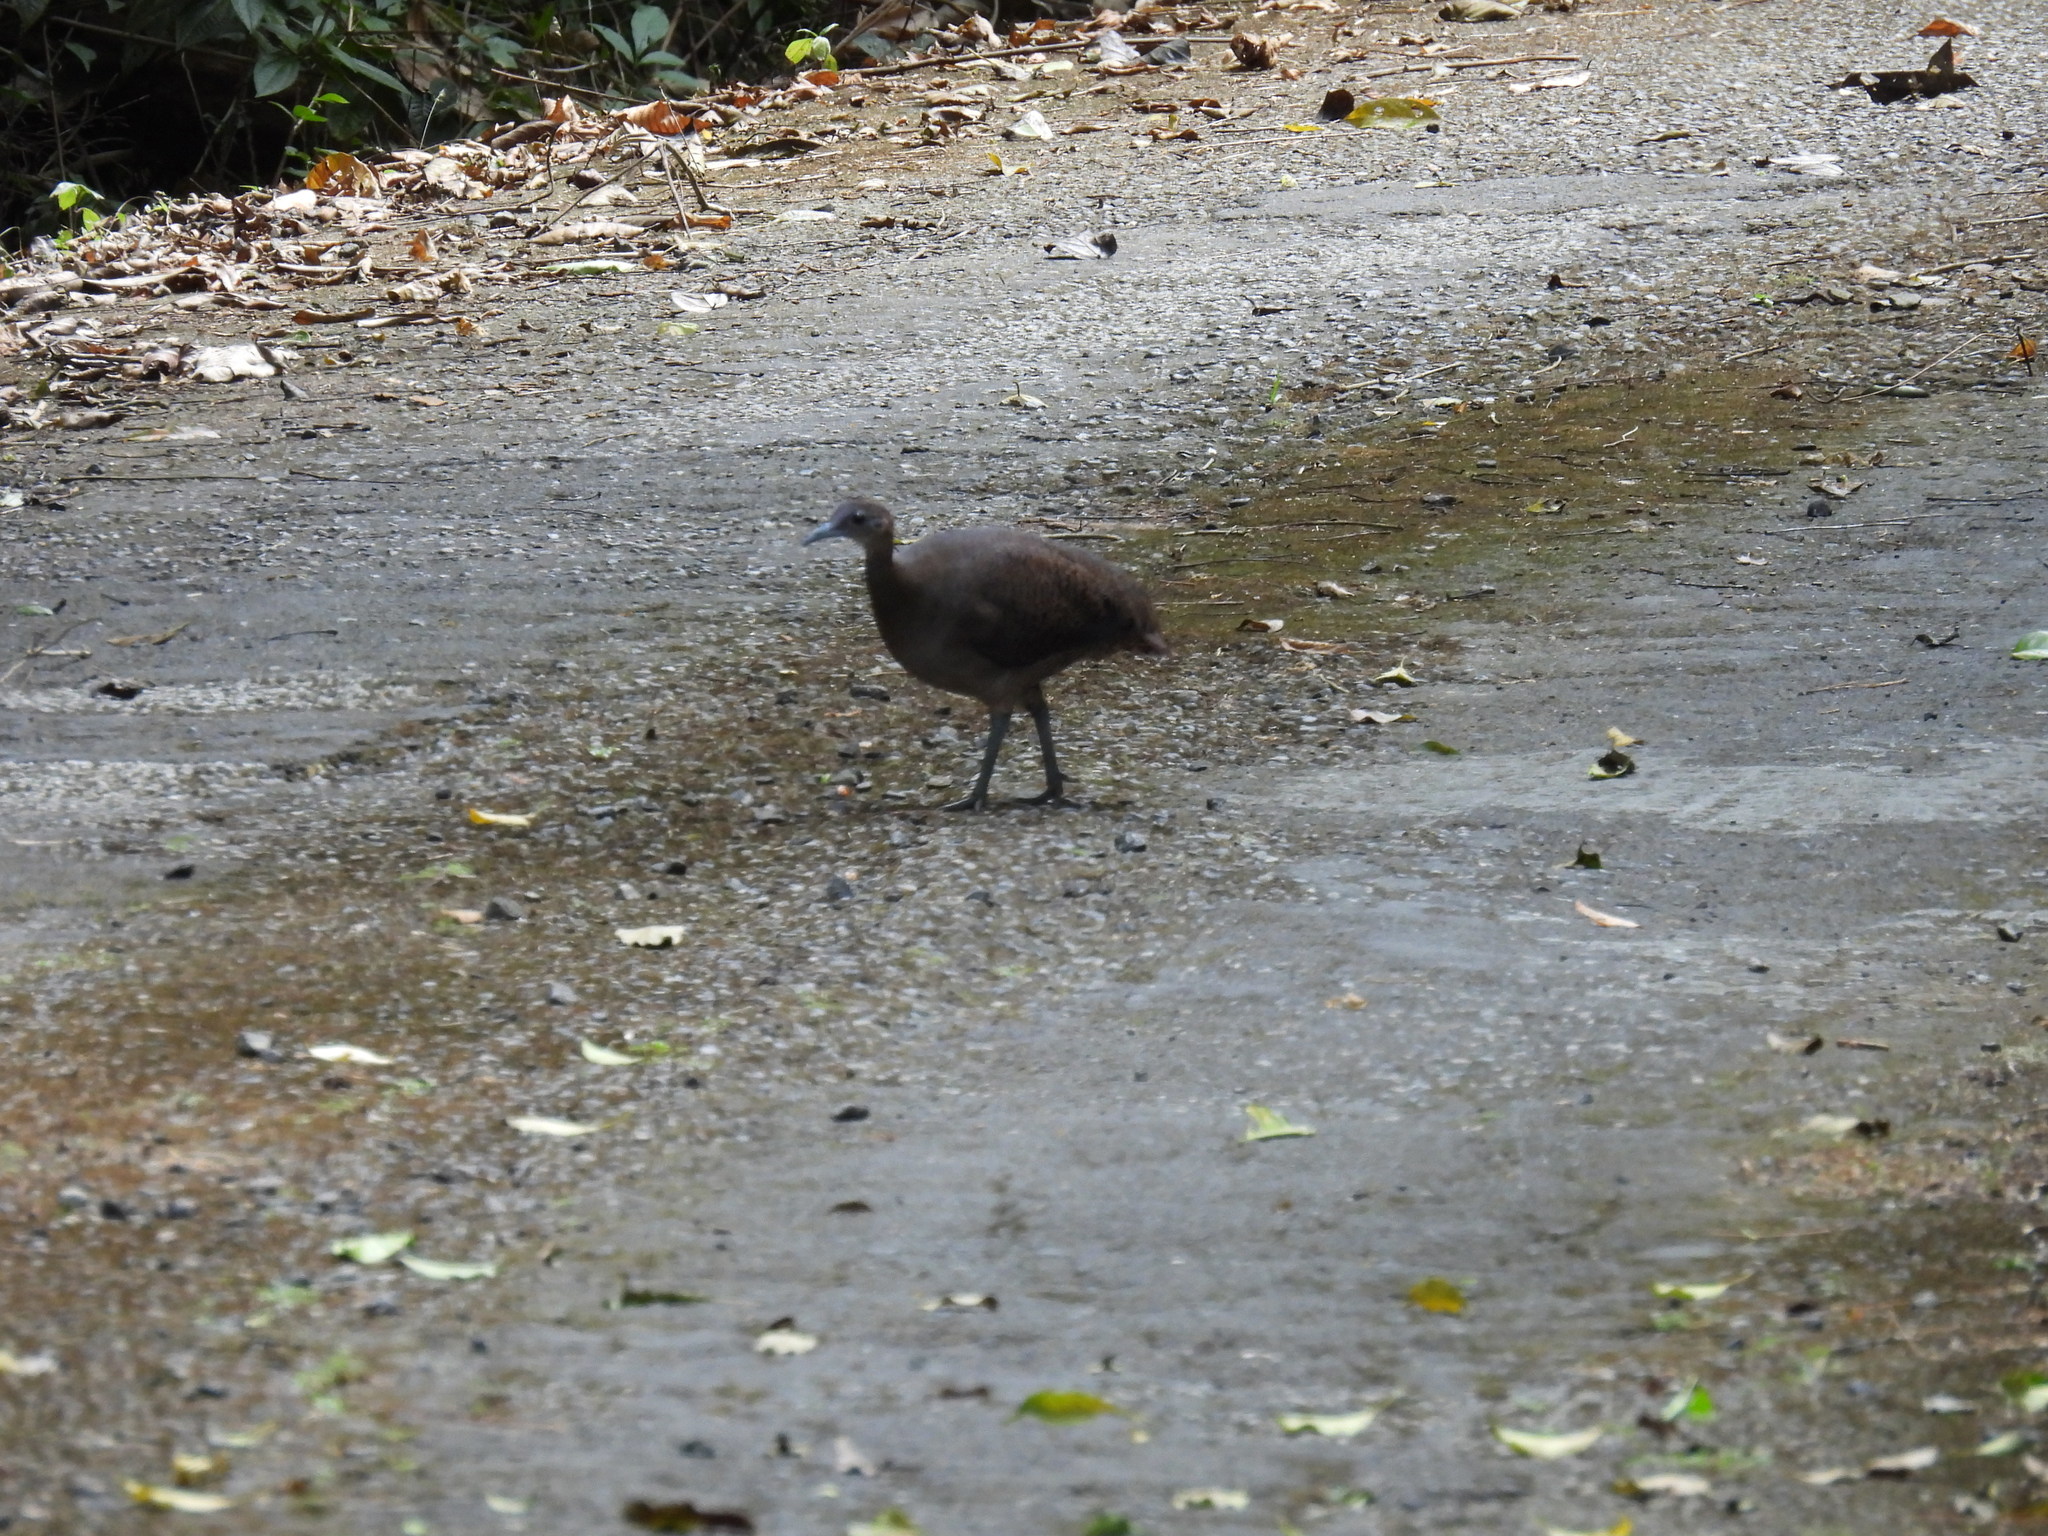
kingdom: Animalia
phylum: Chordata
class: Aves
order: Tinamiformes
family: Tinamidae
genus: Tinamus
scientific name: Tinamus major
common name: Great tinamou
